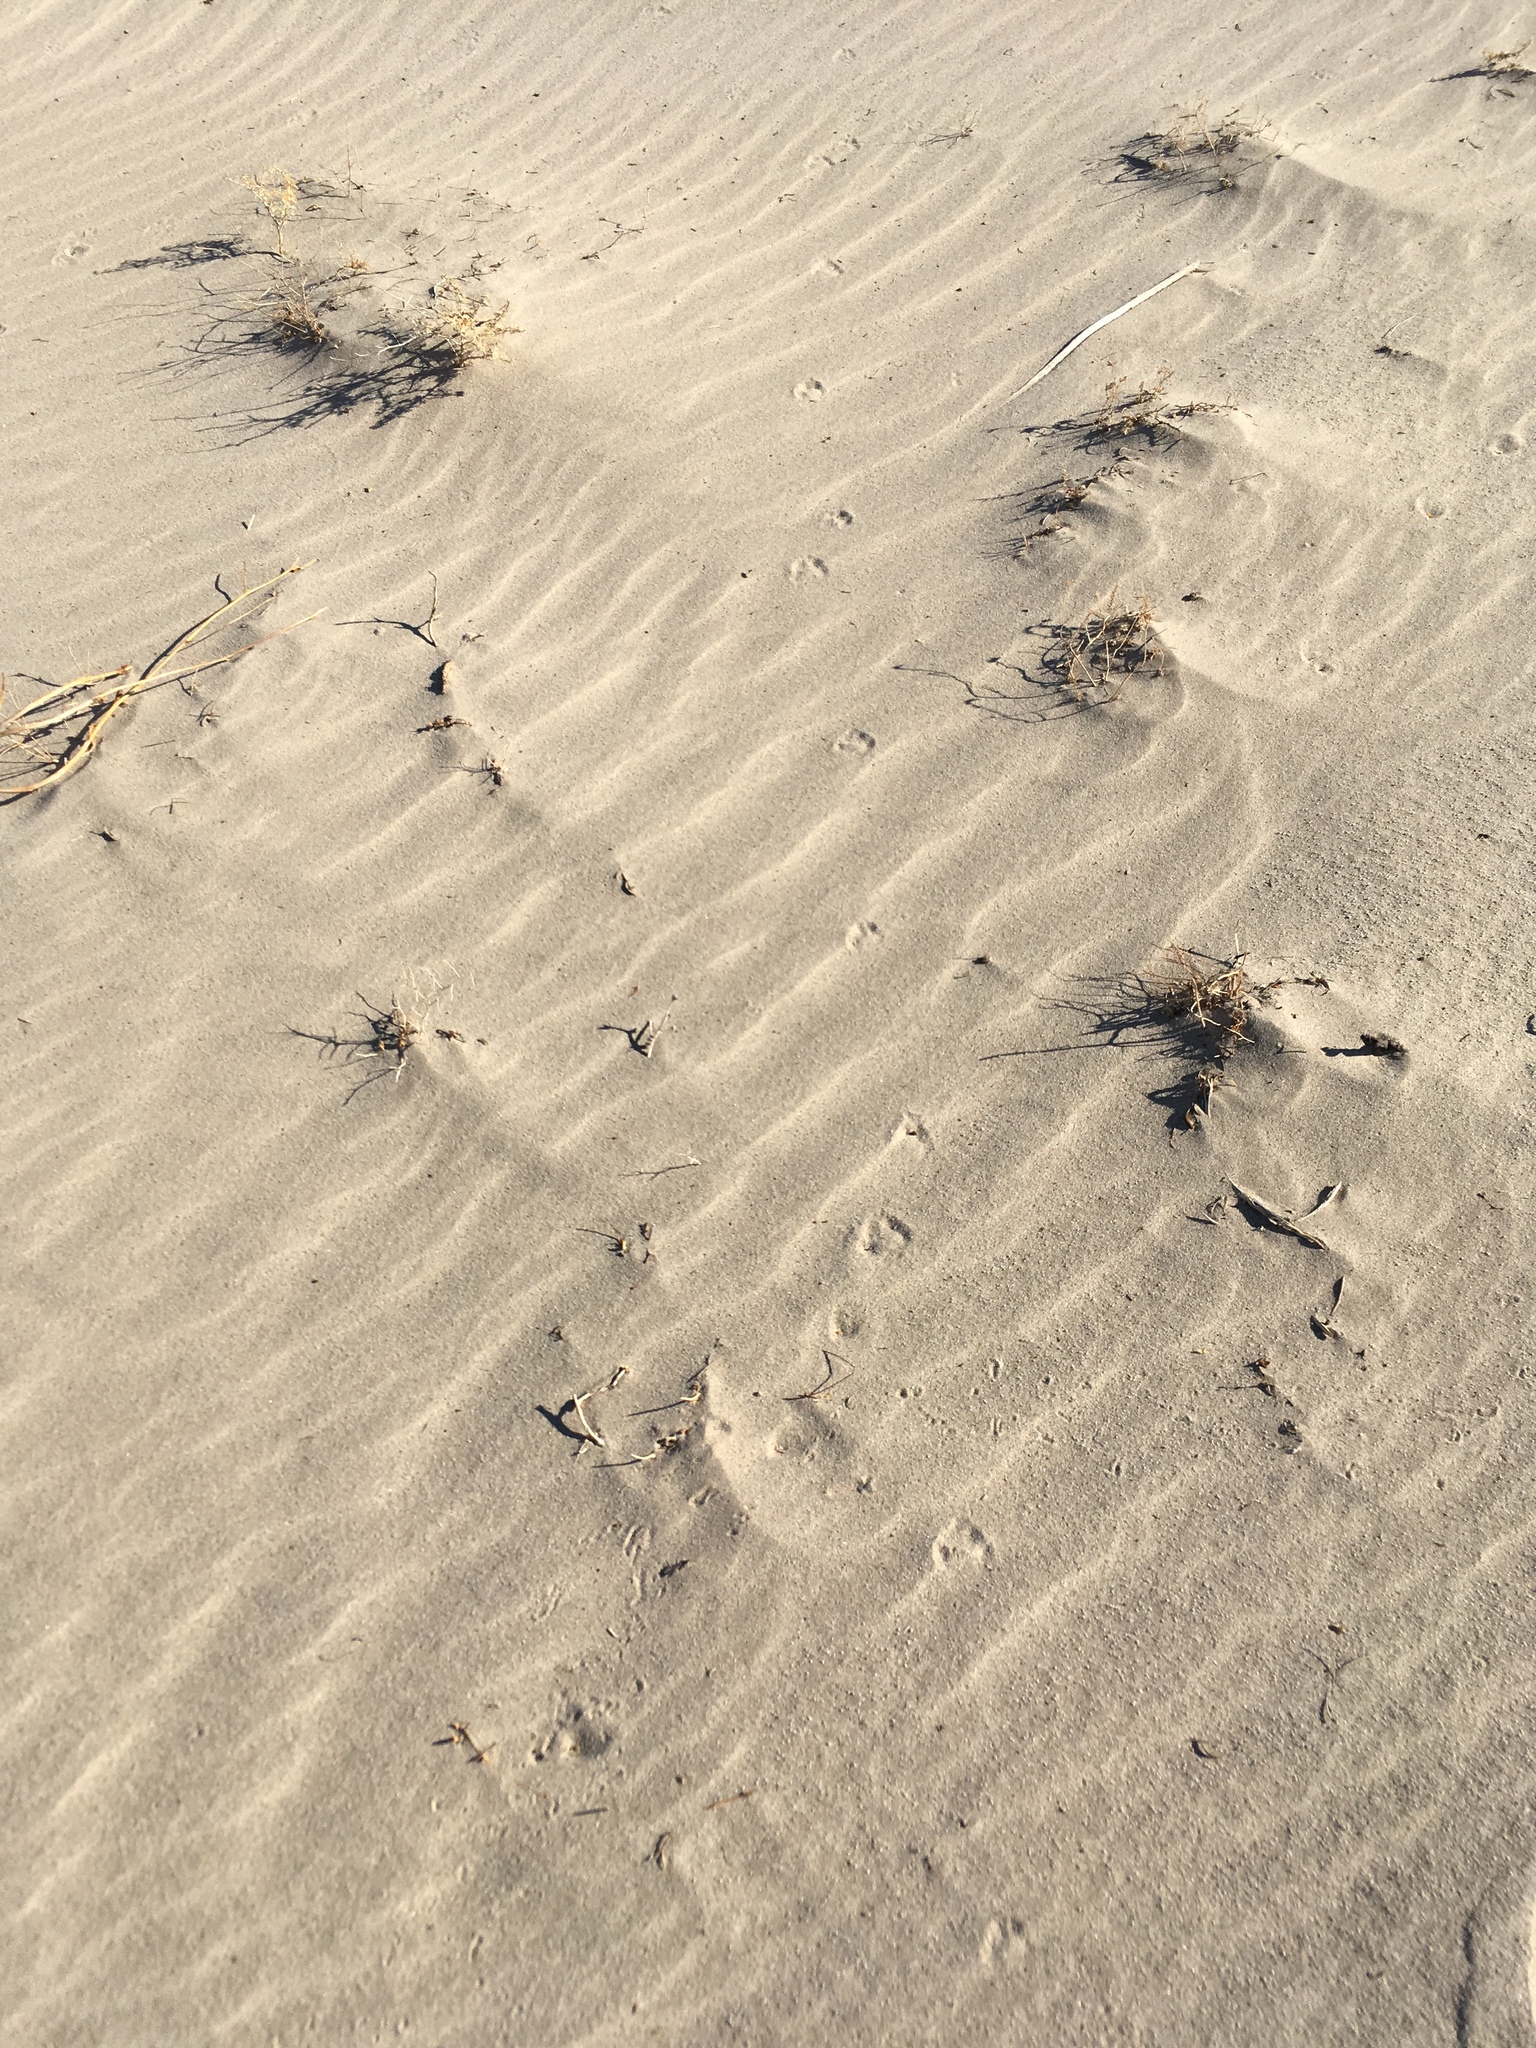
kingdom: Animalia
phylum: Chordata
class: Mammalia
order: Carnivora
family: Canidae
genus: Vulpes
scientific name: Vulpes macrotis
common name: Kit fox
